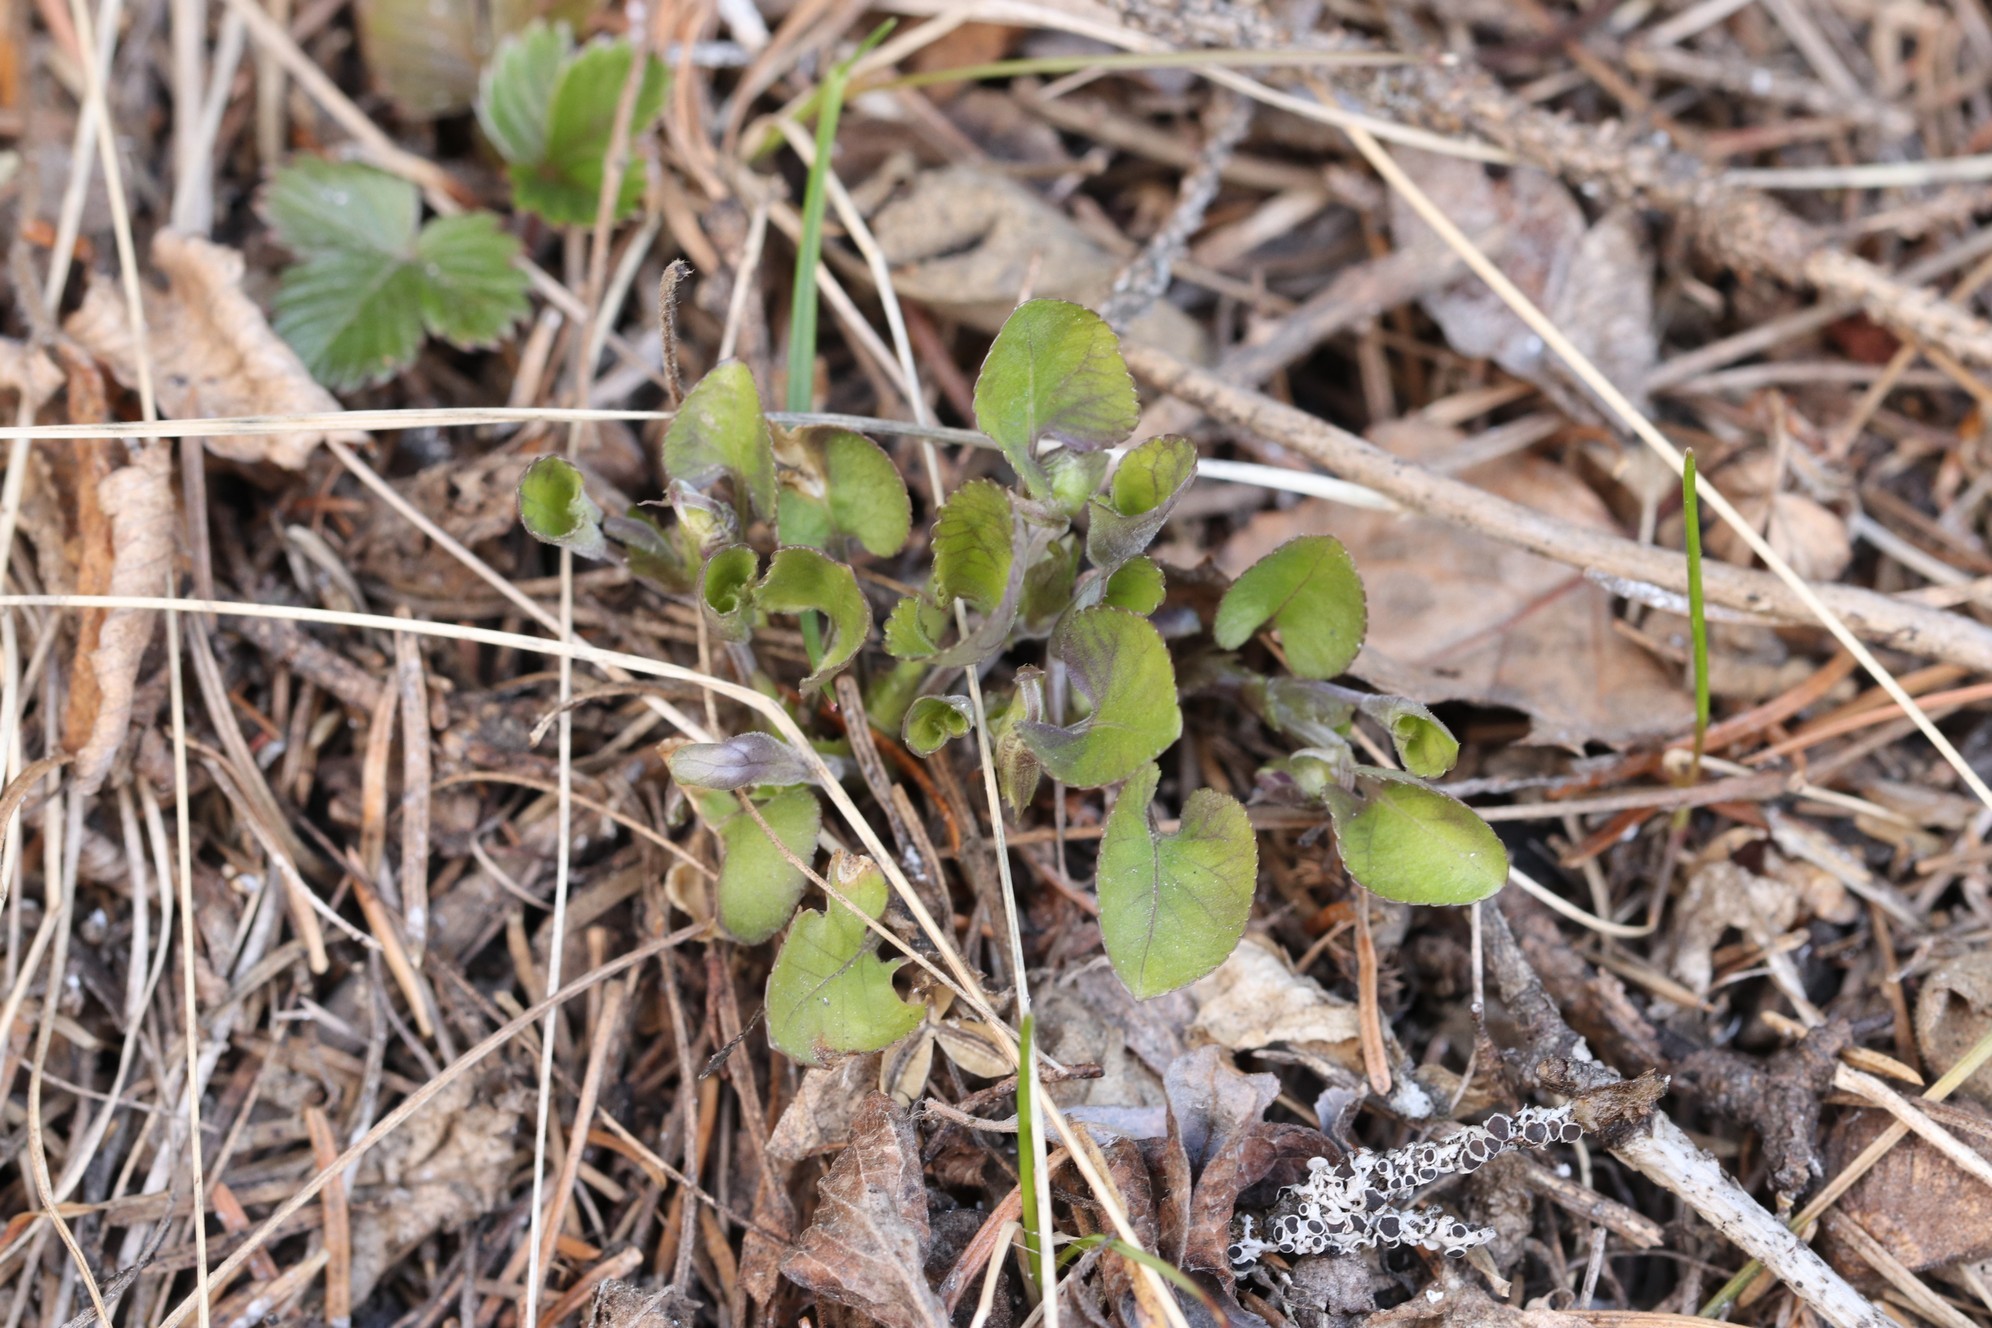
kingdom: Plantae
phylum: Tracheophyta
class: Magnoliopsida
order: Malpighiales
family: Violaceae
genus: Viola
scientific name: Viola rupestris
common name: Teesdale violet
